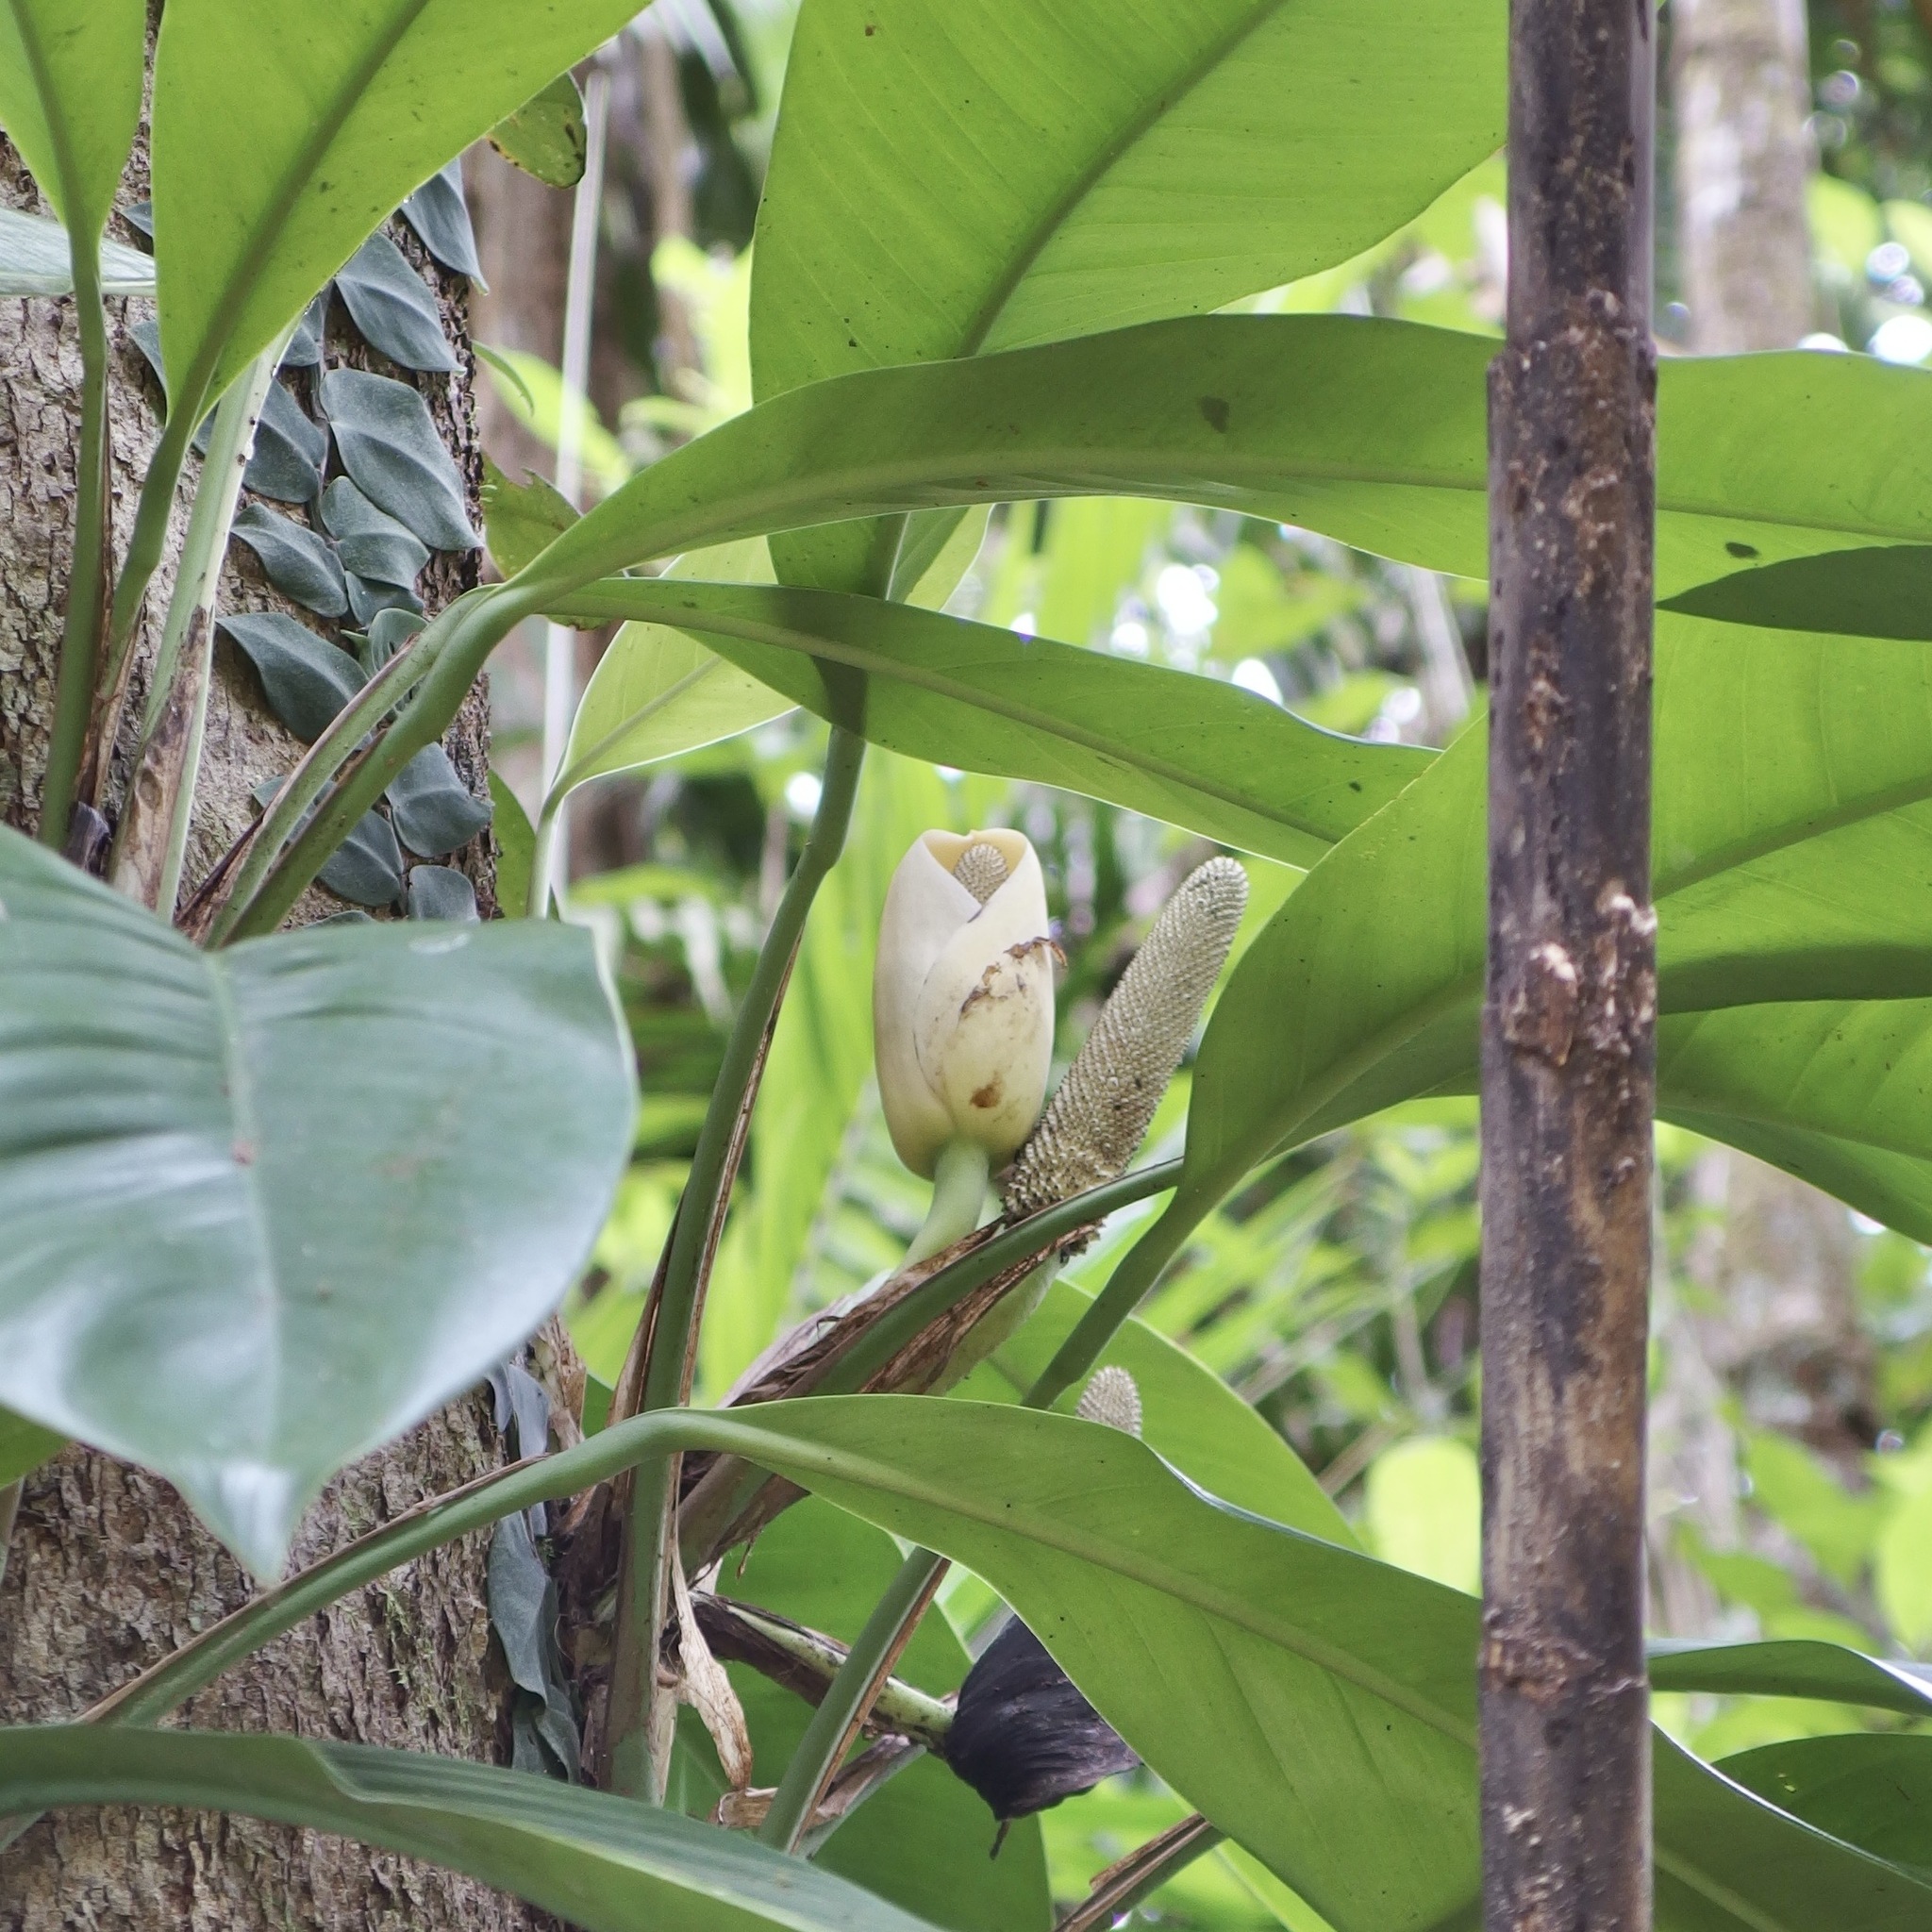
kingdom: Plantae
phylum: Tracheophyta
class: Liliopsida
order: Alismatales
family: Araceae
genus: Rhaphidophora
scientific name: Rhaphidophora australasica
